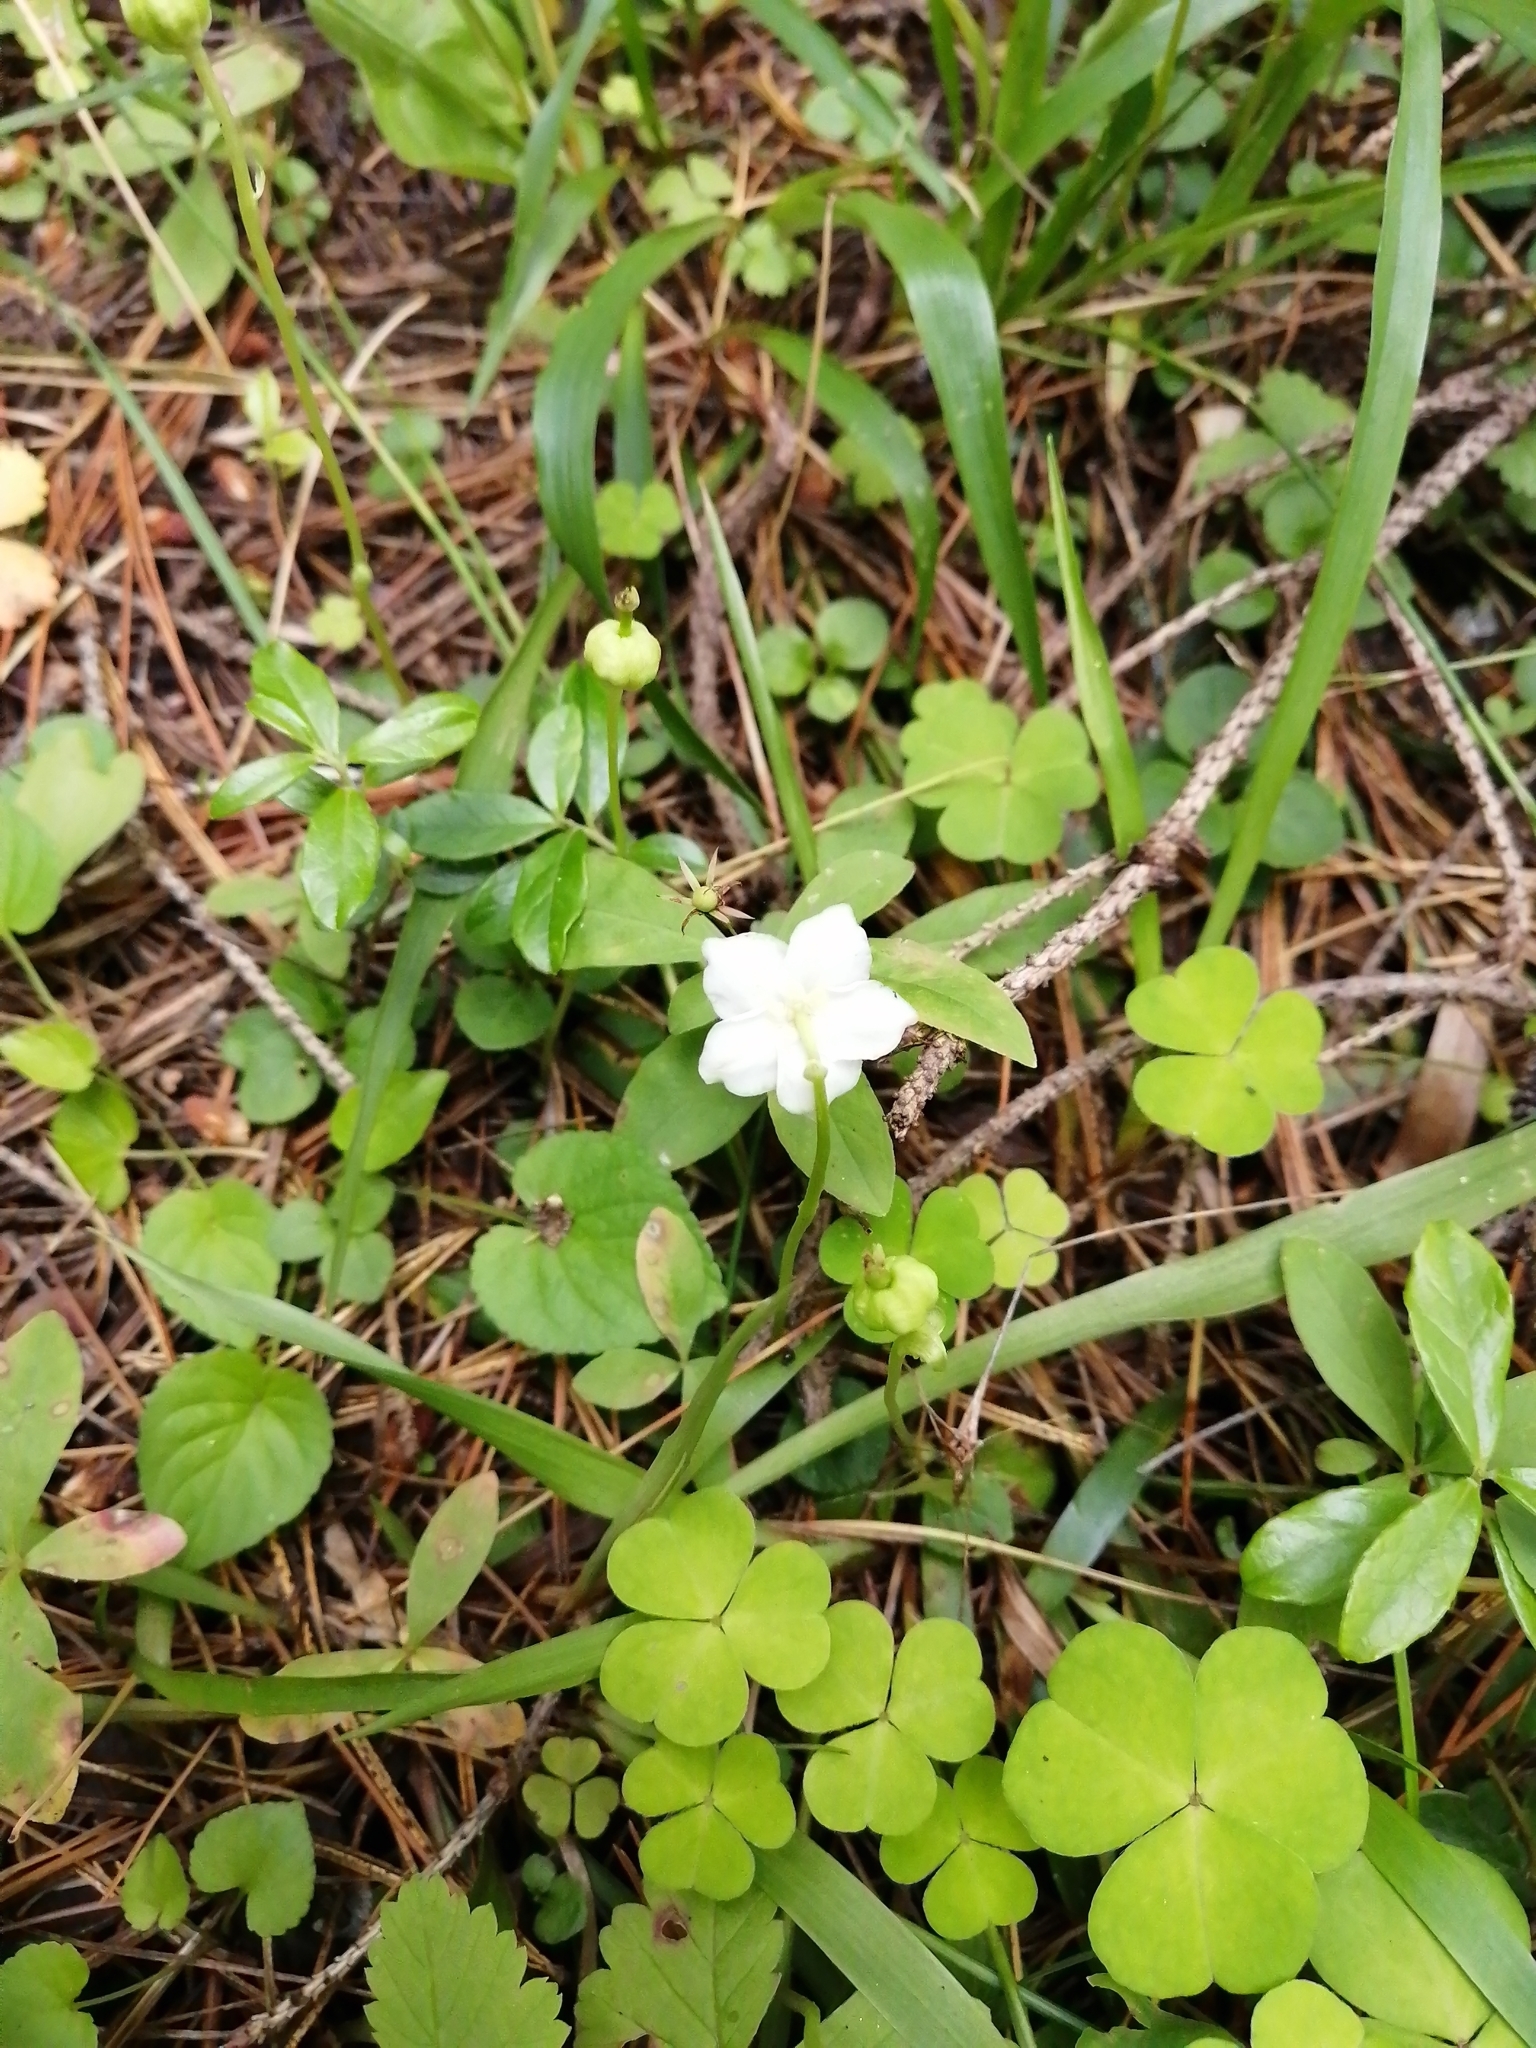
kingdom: Plantae
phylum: Tracheophyta
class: Magnoliopsida
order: Ericales
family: Ericaceae
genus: Moneses
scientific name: Moneses uniflora
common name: One-flowered wintergreen
